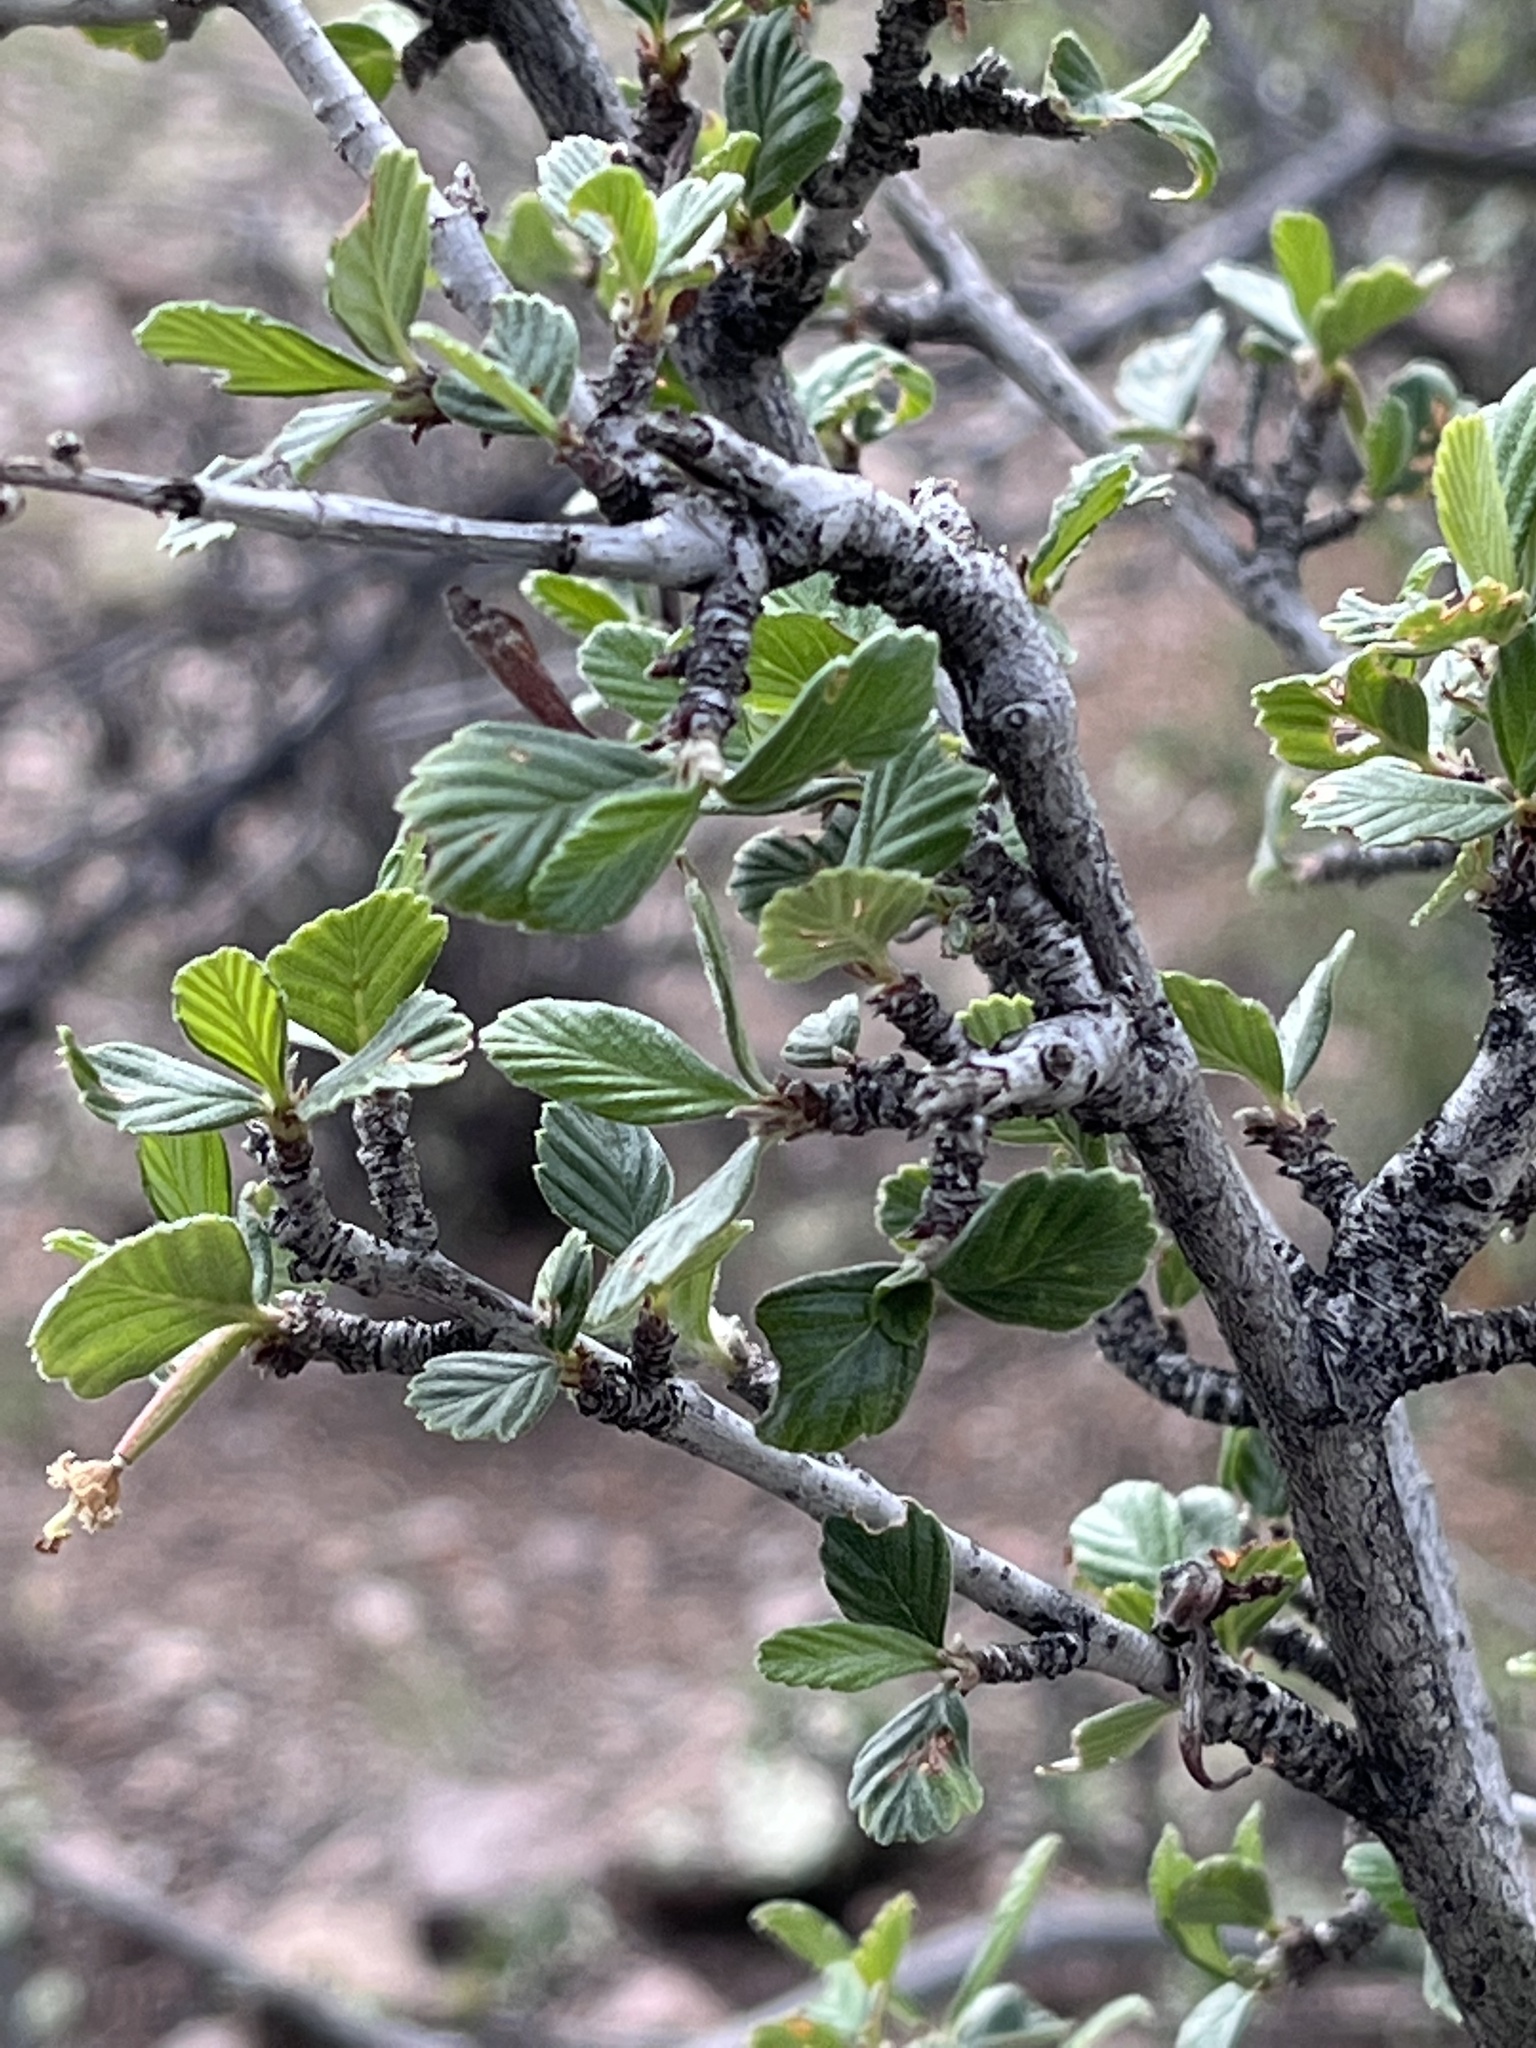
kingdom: Plantae
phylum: Tracheophyta
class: Magnoliopsida
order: Rosales
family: Rosaceae
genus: Cercocarpus
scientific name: Cercocarpus montanus
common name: Alder-leaf cercocarpus
